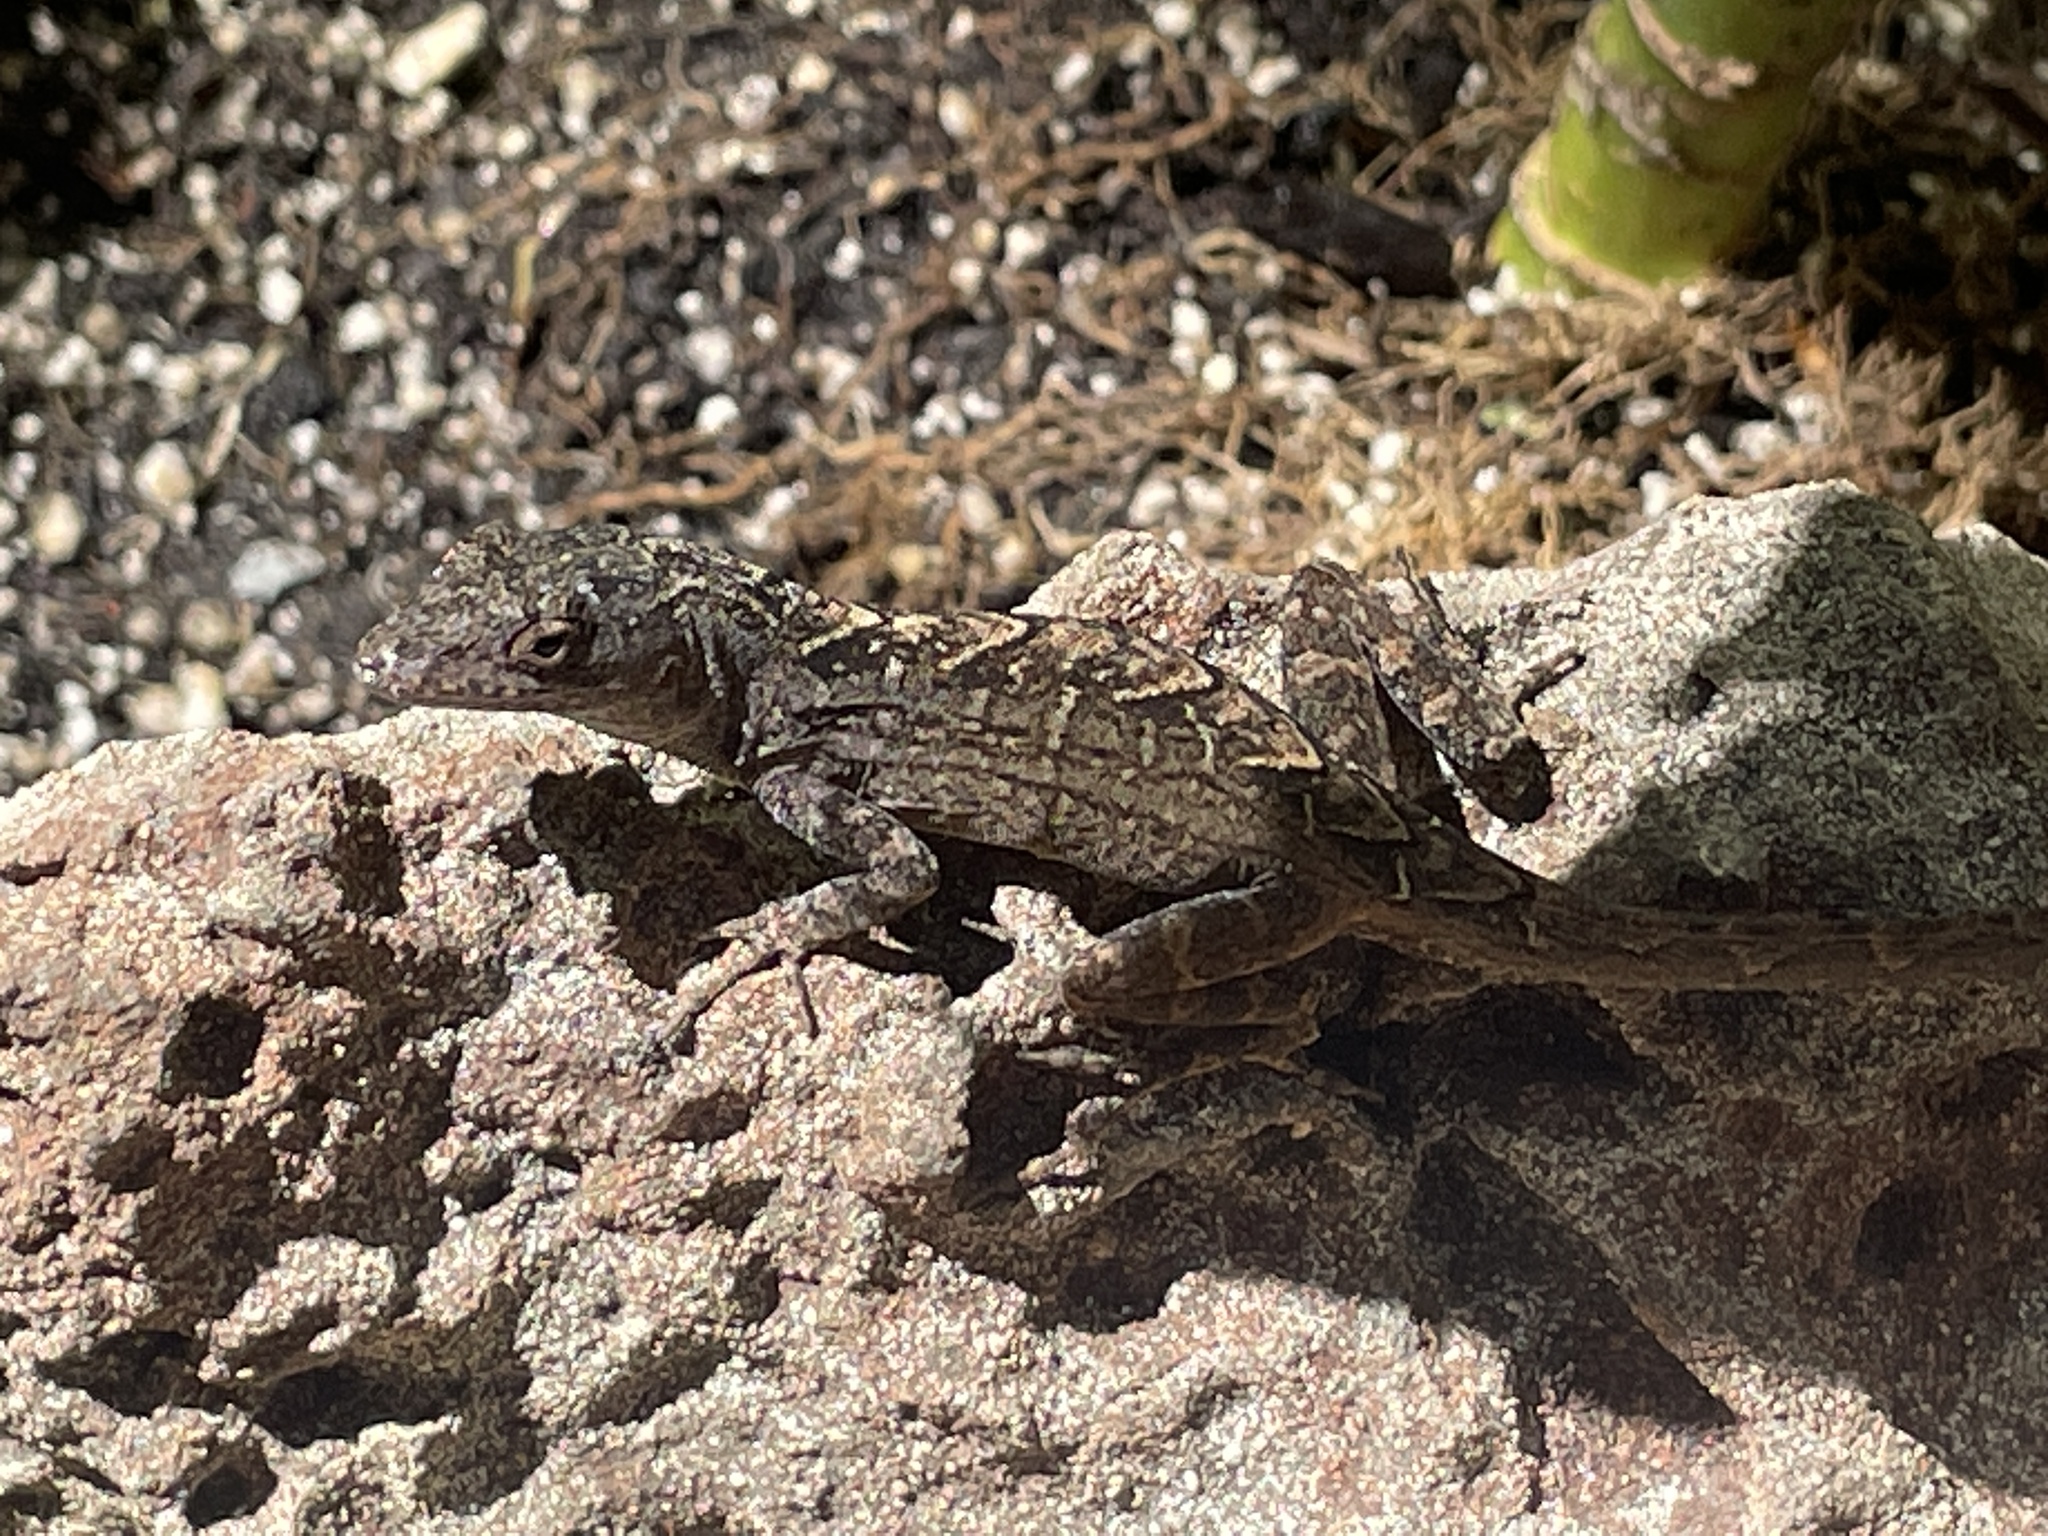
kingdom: Animalia
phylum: Chordata
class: Squamata
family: Dactyloidae
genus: Anolis
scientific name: Anolis sagrei
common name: Brown anole
